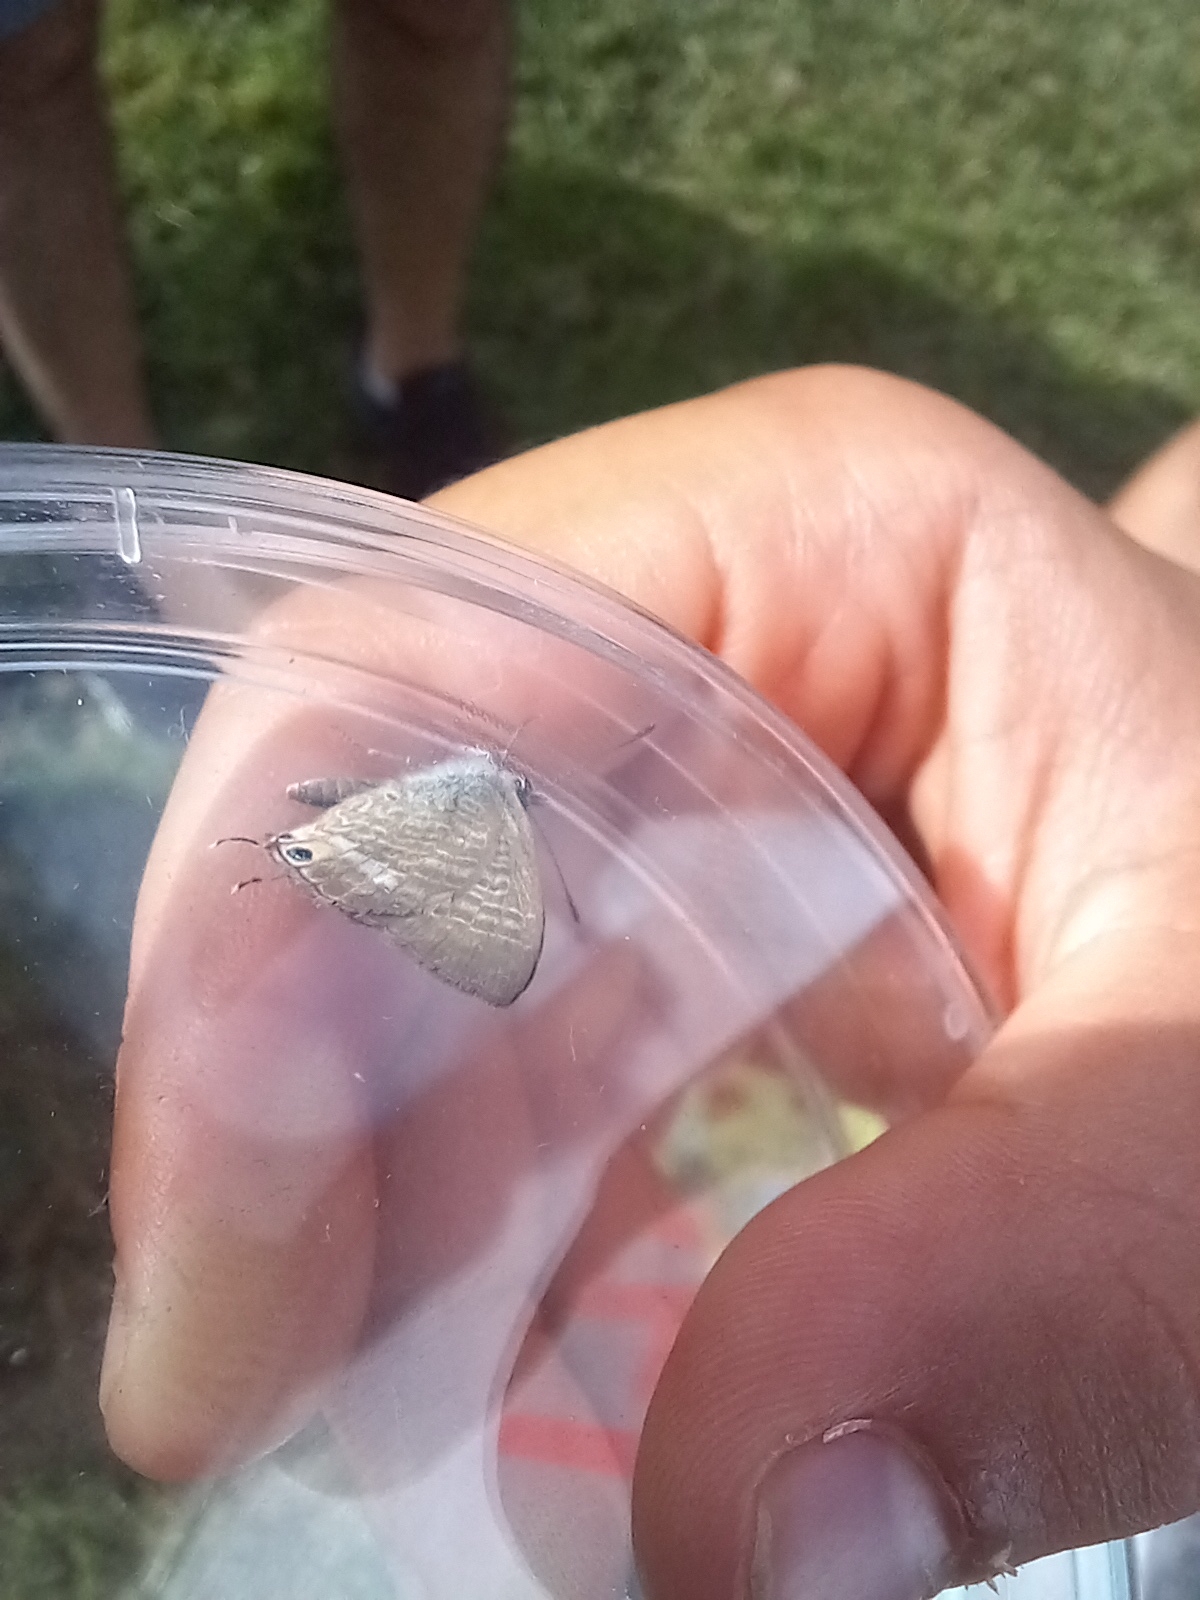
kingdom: Animalia
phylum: Arthropoda
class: Insecta
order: Lepidoptera
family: Lycaenidae
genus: Lampides
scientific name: Lampides boeticus
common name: Long-tailed blue
